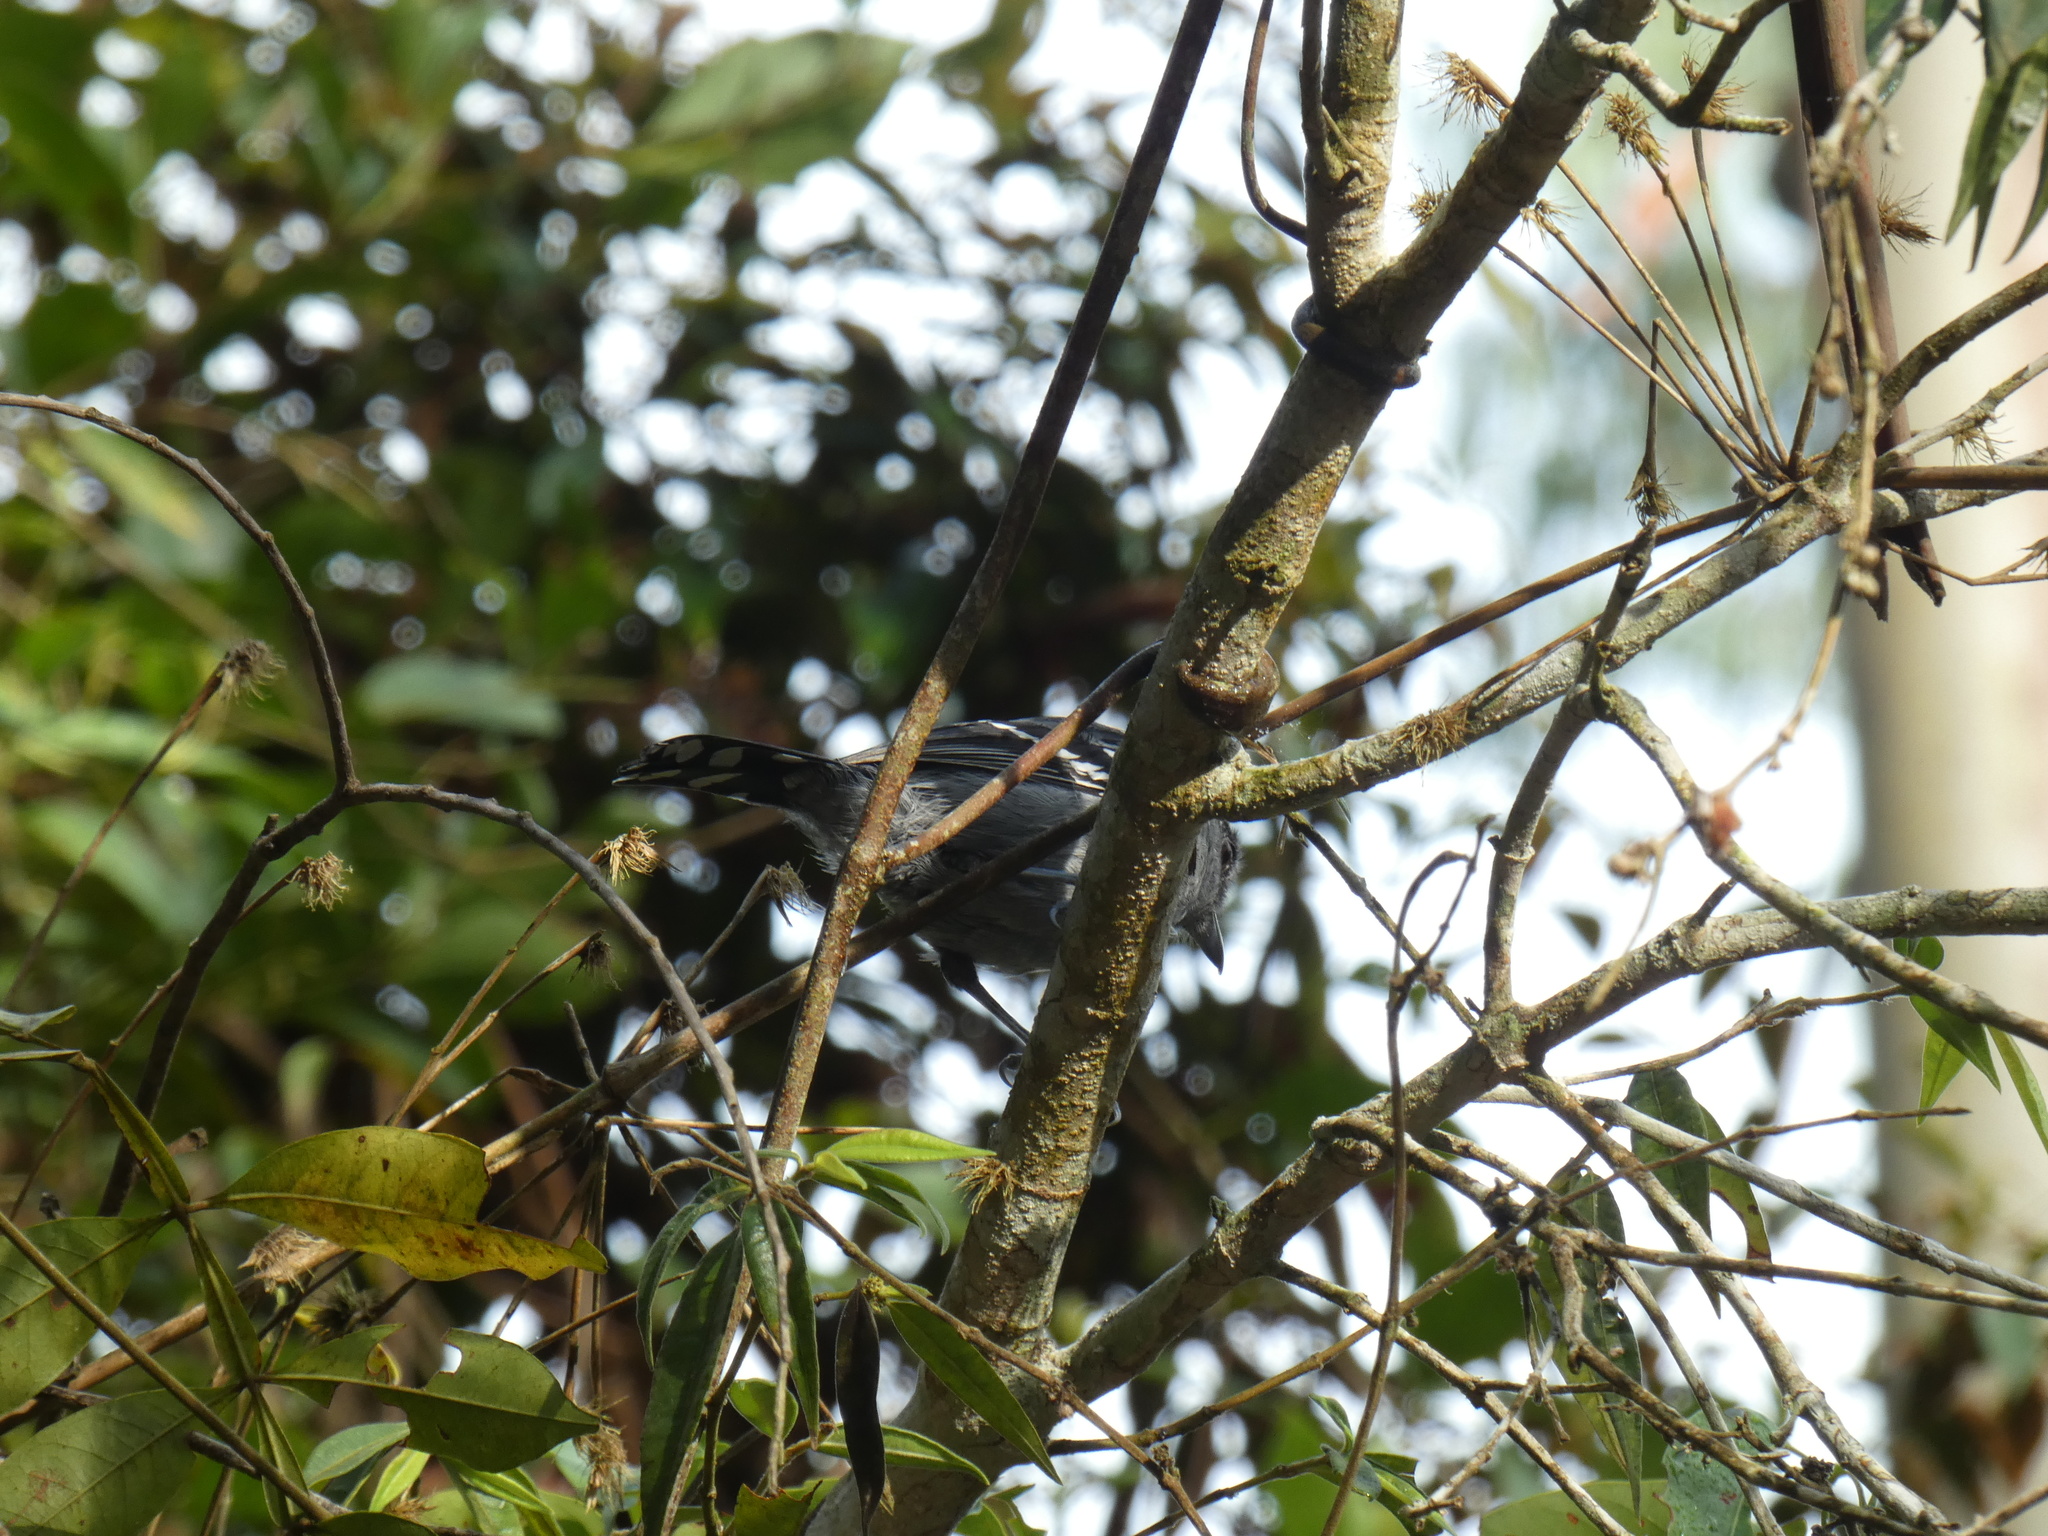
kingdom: Animalia
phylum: Chordata
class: Aves
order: Passeriformes
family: Thamnophilidae
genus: Thamnophilus
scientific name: Thamnophilus caerulescens
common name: Variable antshrike
